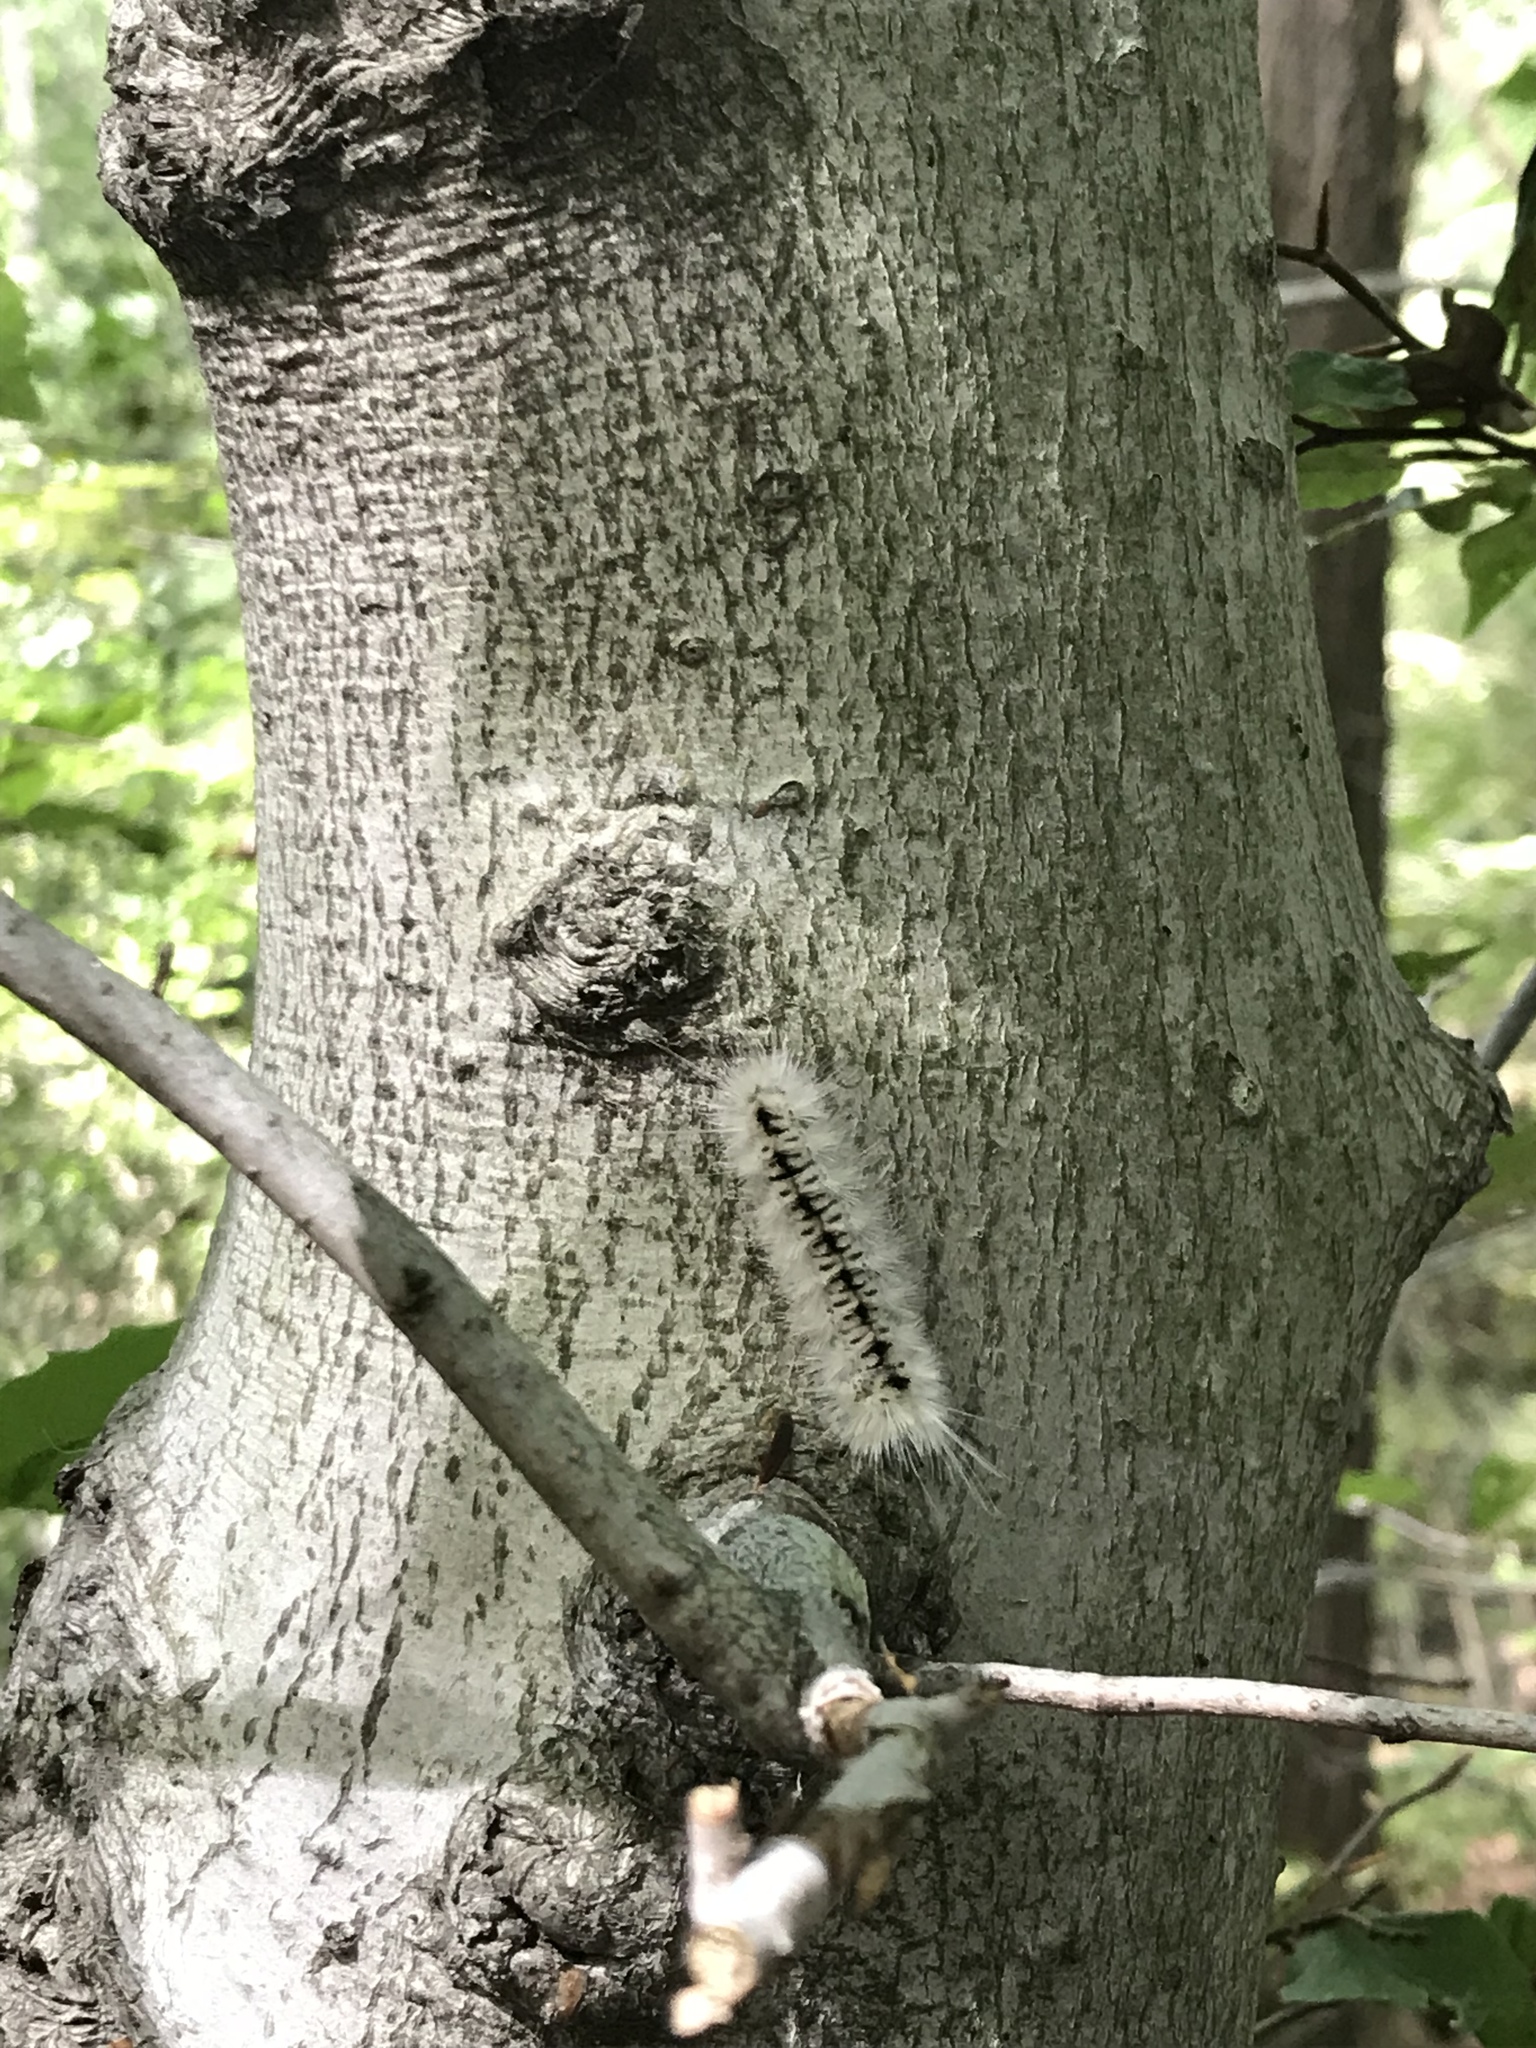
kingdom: Animalia
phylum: Arthropoda
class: Insecta
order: Lepidoptera
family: Erebidae
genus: Lophocampa
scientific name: Lophocampa caryae
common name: Hickory tussock moth
